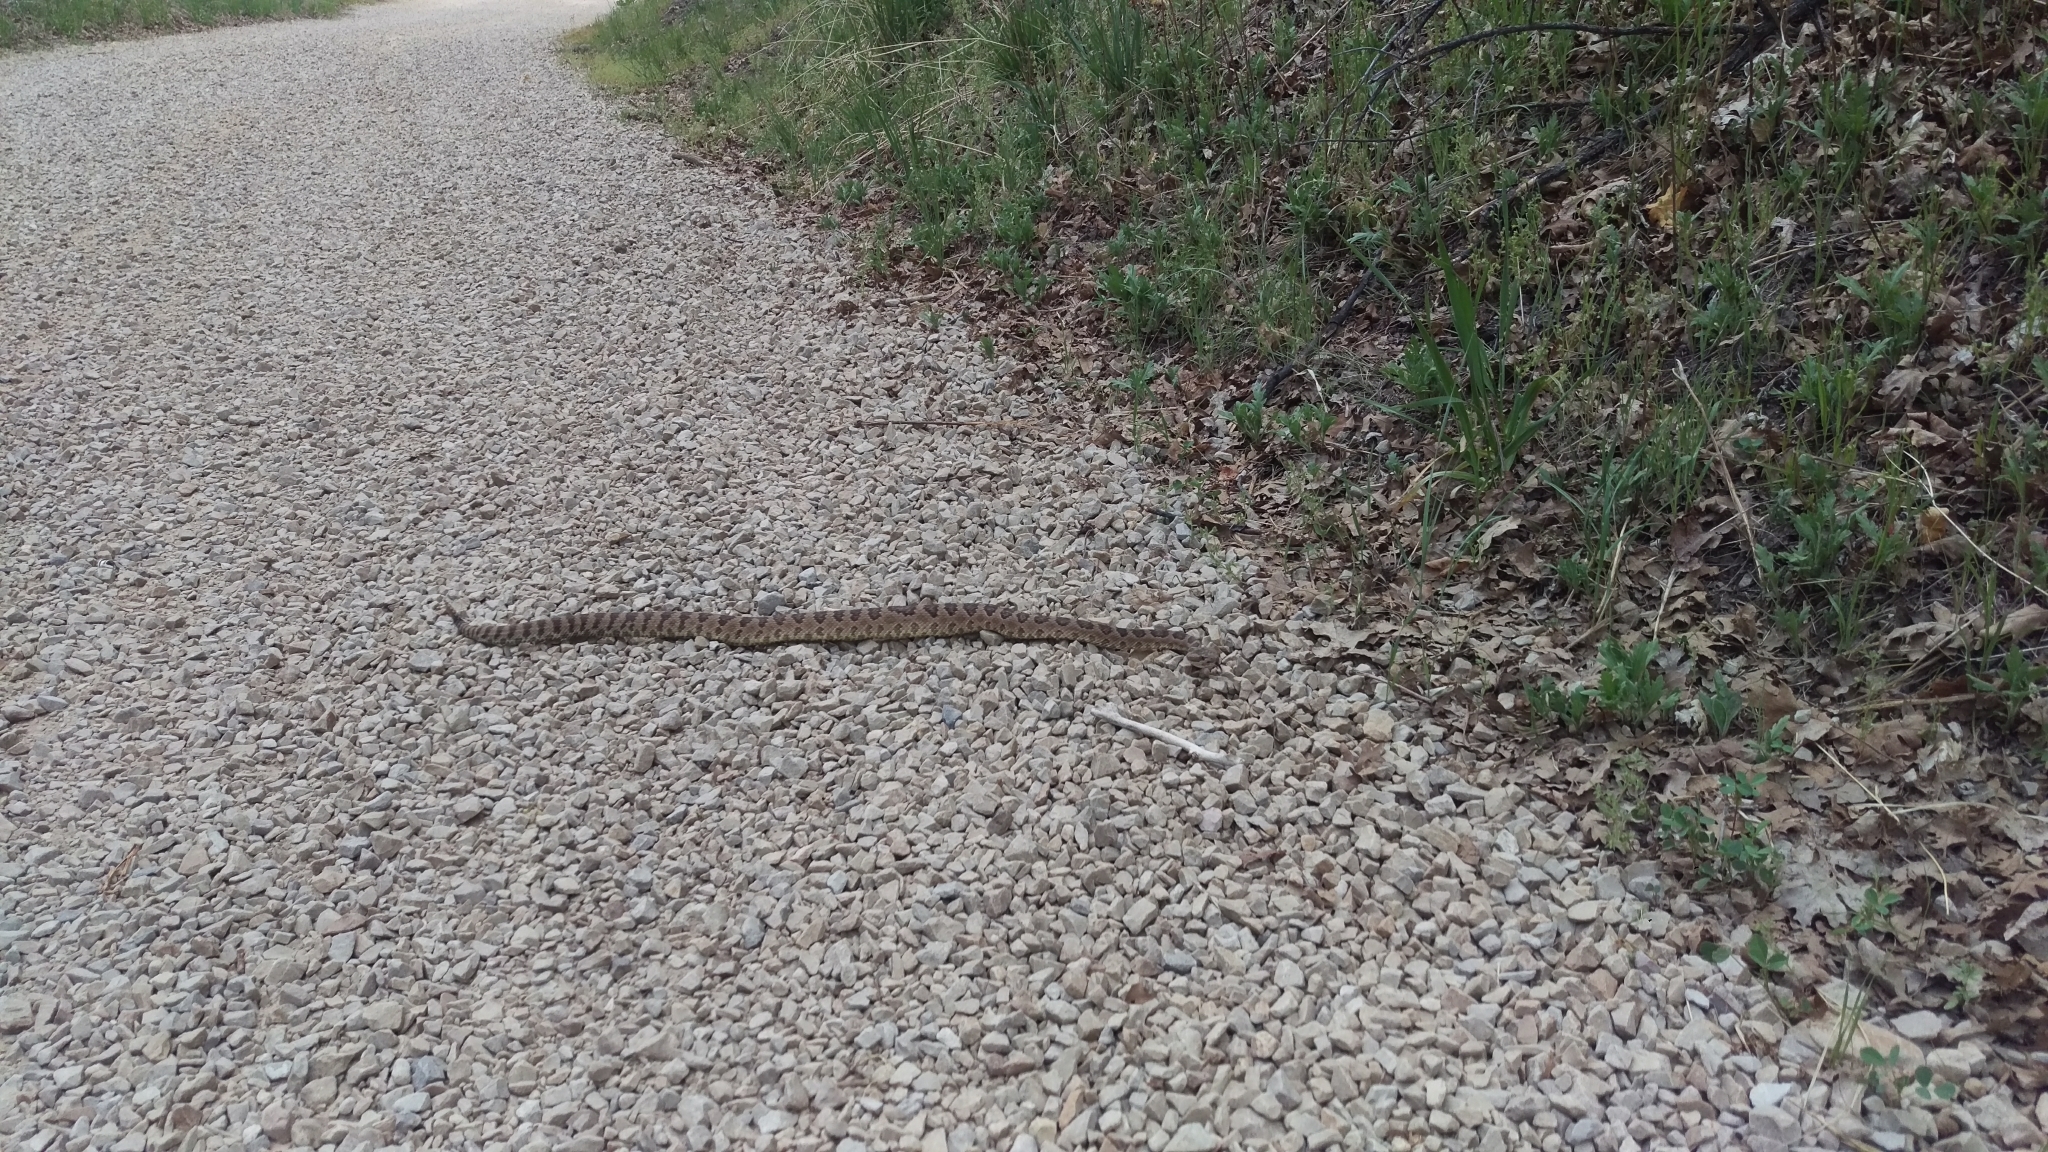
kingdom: Animalia
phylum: Chordata
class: Squamata
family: Viperidae
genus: Crotalus
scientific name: Crotalus oreganus
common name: Abyssus
